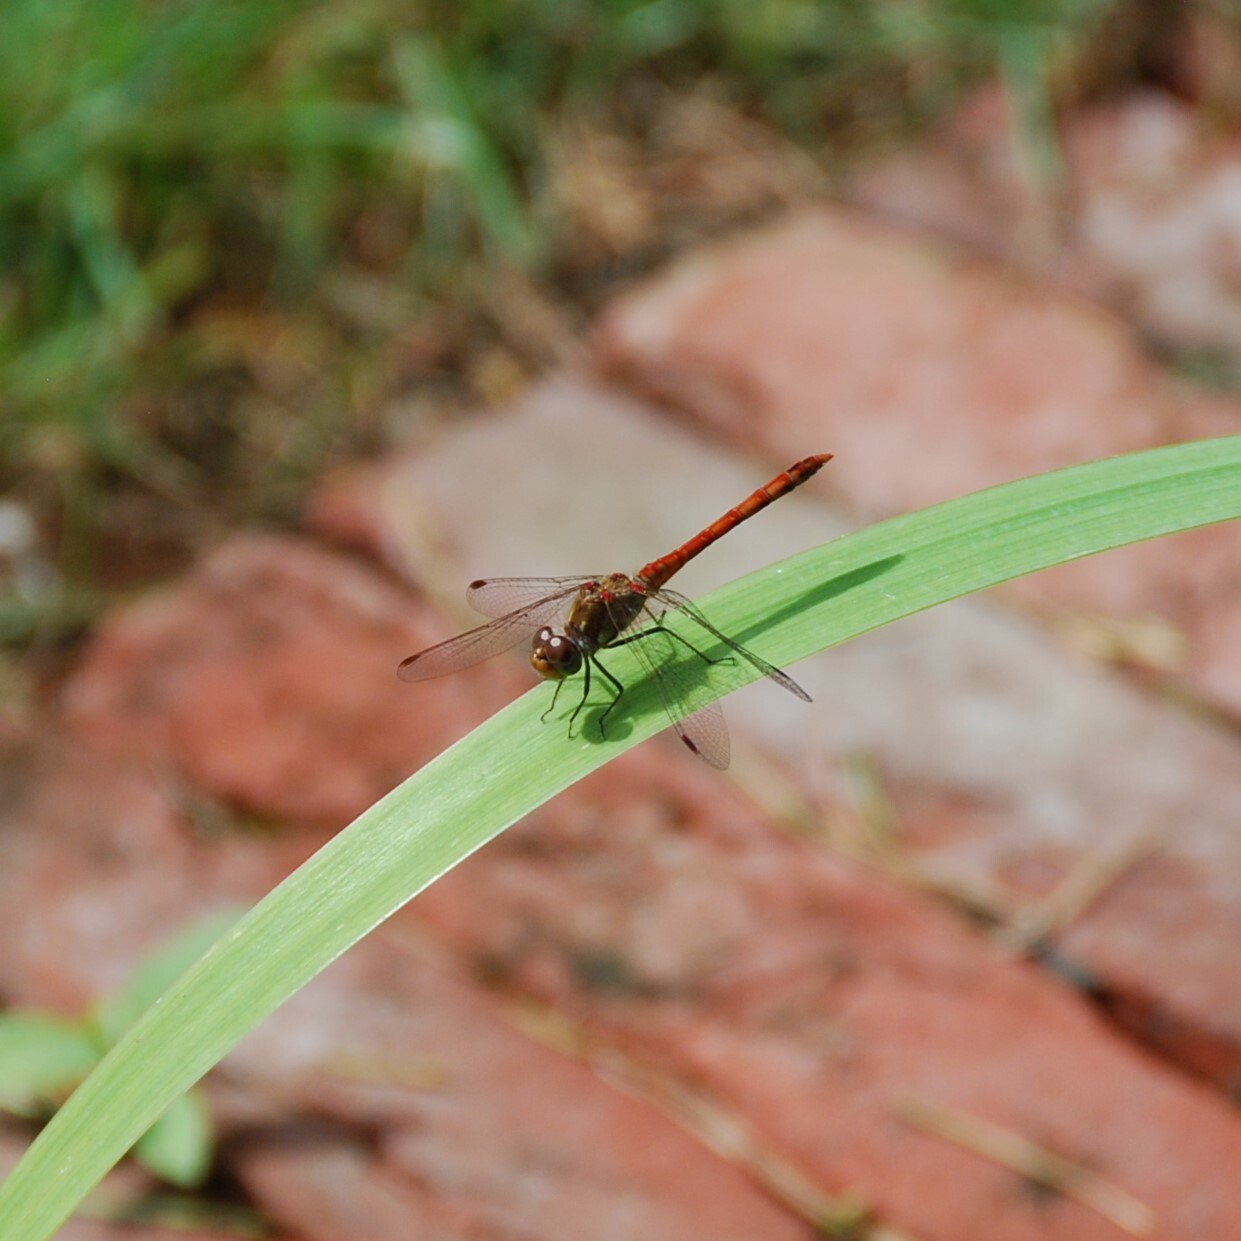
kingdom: Animalia
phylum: Arthropoda
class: Insecta
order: Odonata
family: Libellulidae
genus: Sympetrum
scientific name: Sympetrum striolatum
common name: Common darter
